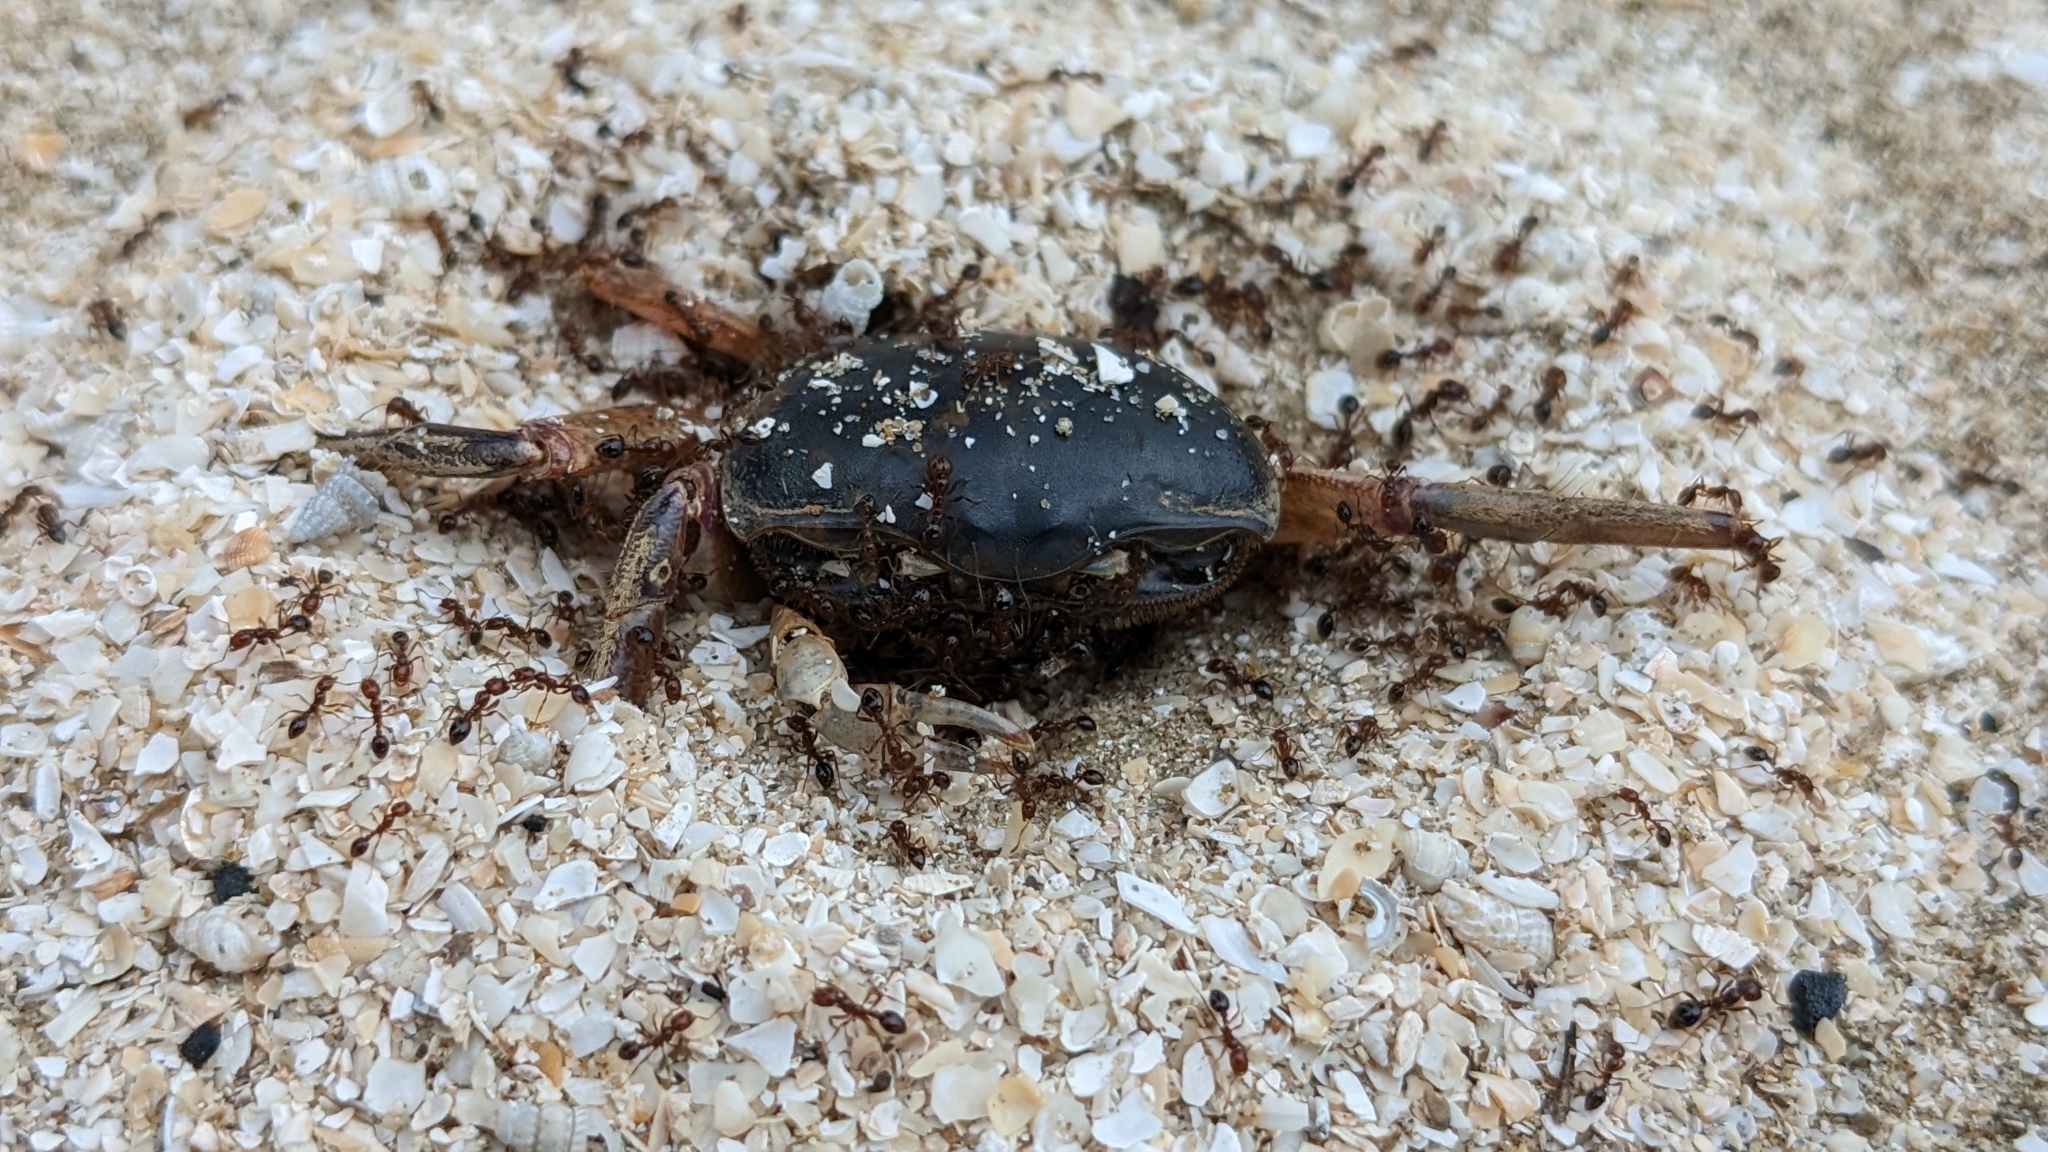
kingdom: Animalia
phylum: Arthropoda
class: Insecta
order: Hymenoptera
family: Formicidae
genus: Solenopsis
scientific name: Solenopsis invicta
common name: Red imported fire ant
